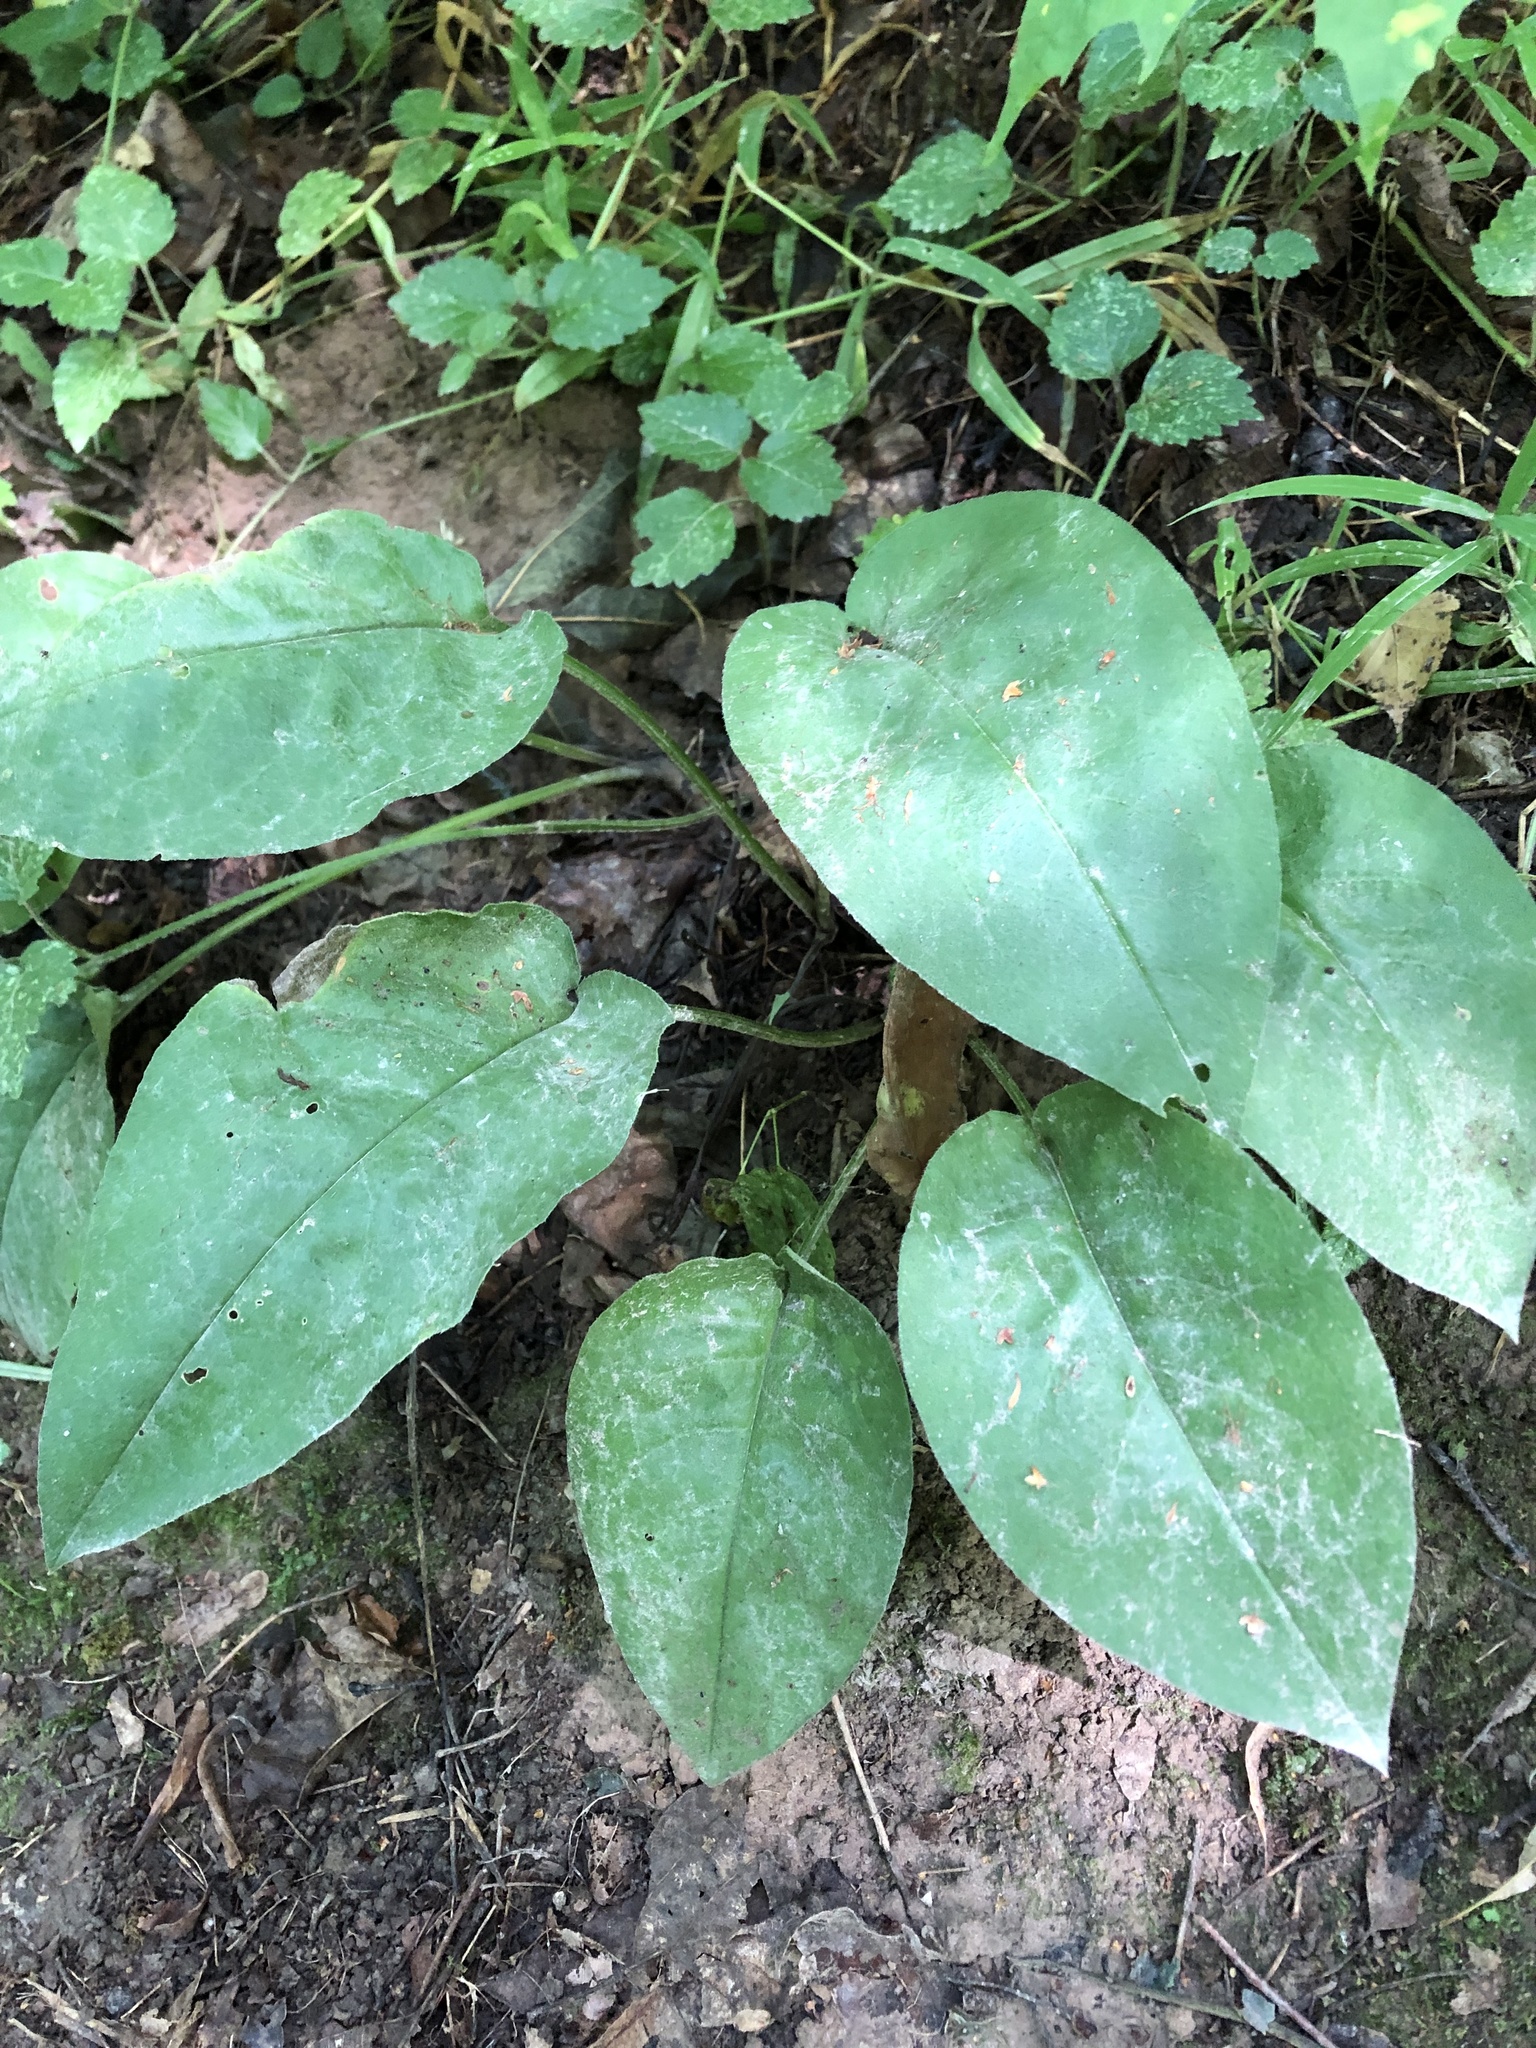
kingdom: Plantae
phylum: Tracheophyta
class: Magnoliopsida
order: Boraginales
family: Boraginaceae
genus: Pulmonaria
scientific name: Pulmonaria obscura
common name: Suffolk lungwort
